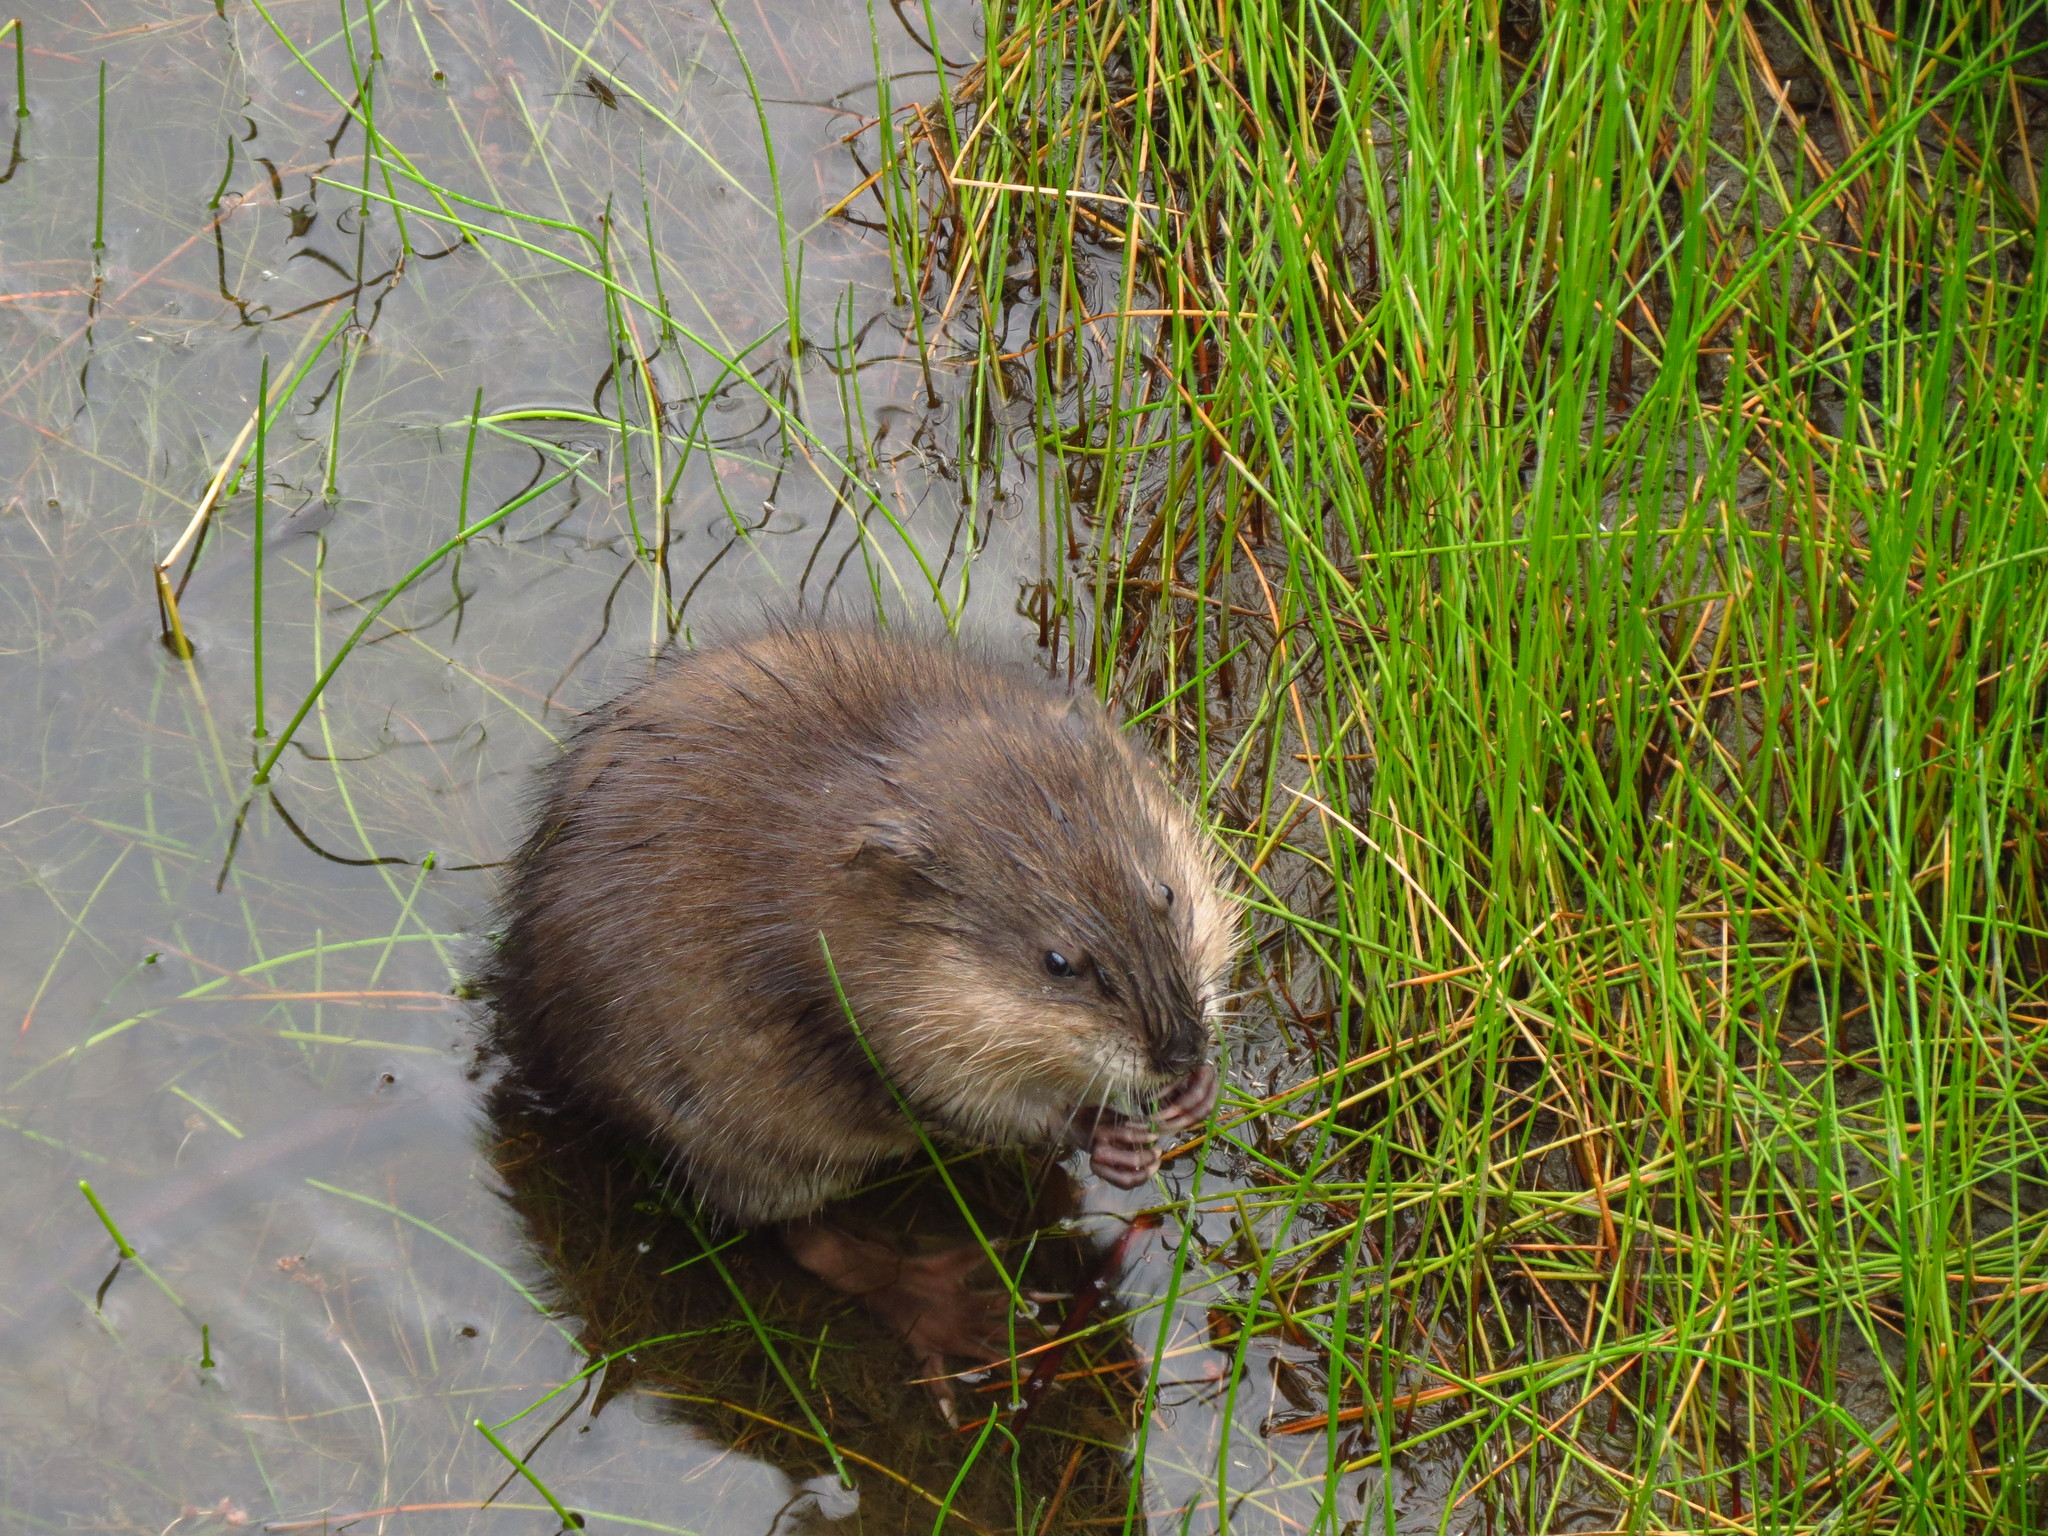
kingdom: Animalia
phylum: Chordata
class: Mammalia
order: Rodentia
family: Cricetidae
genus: Ondatra
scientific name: Ondatra zibethicus
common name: Muskrat
